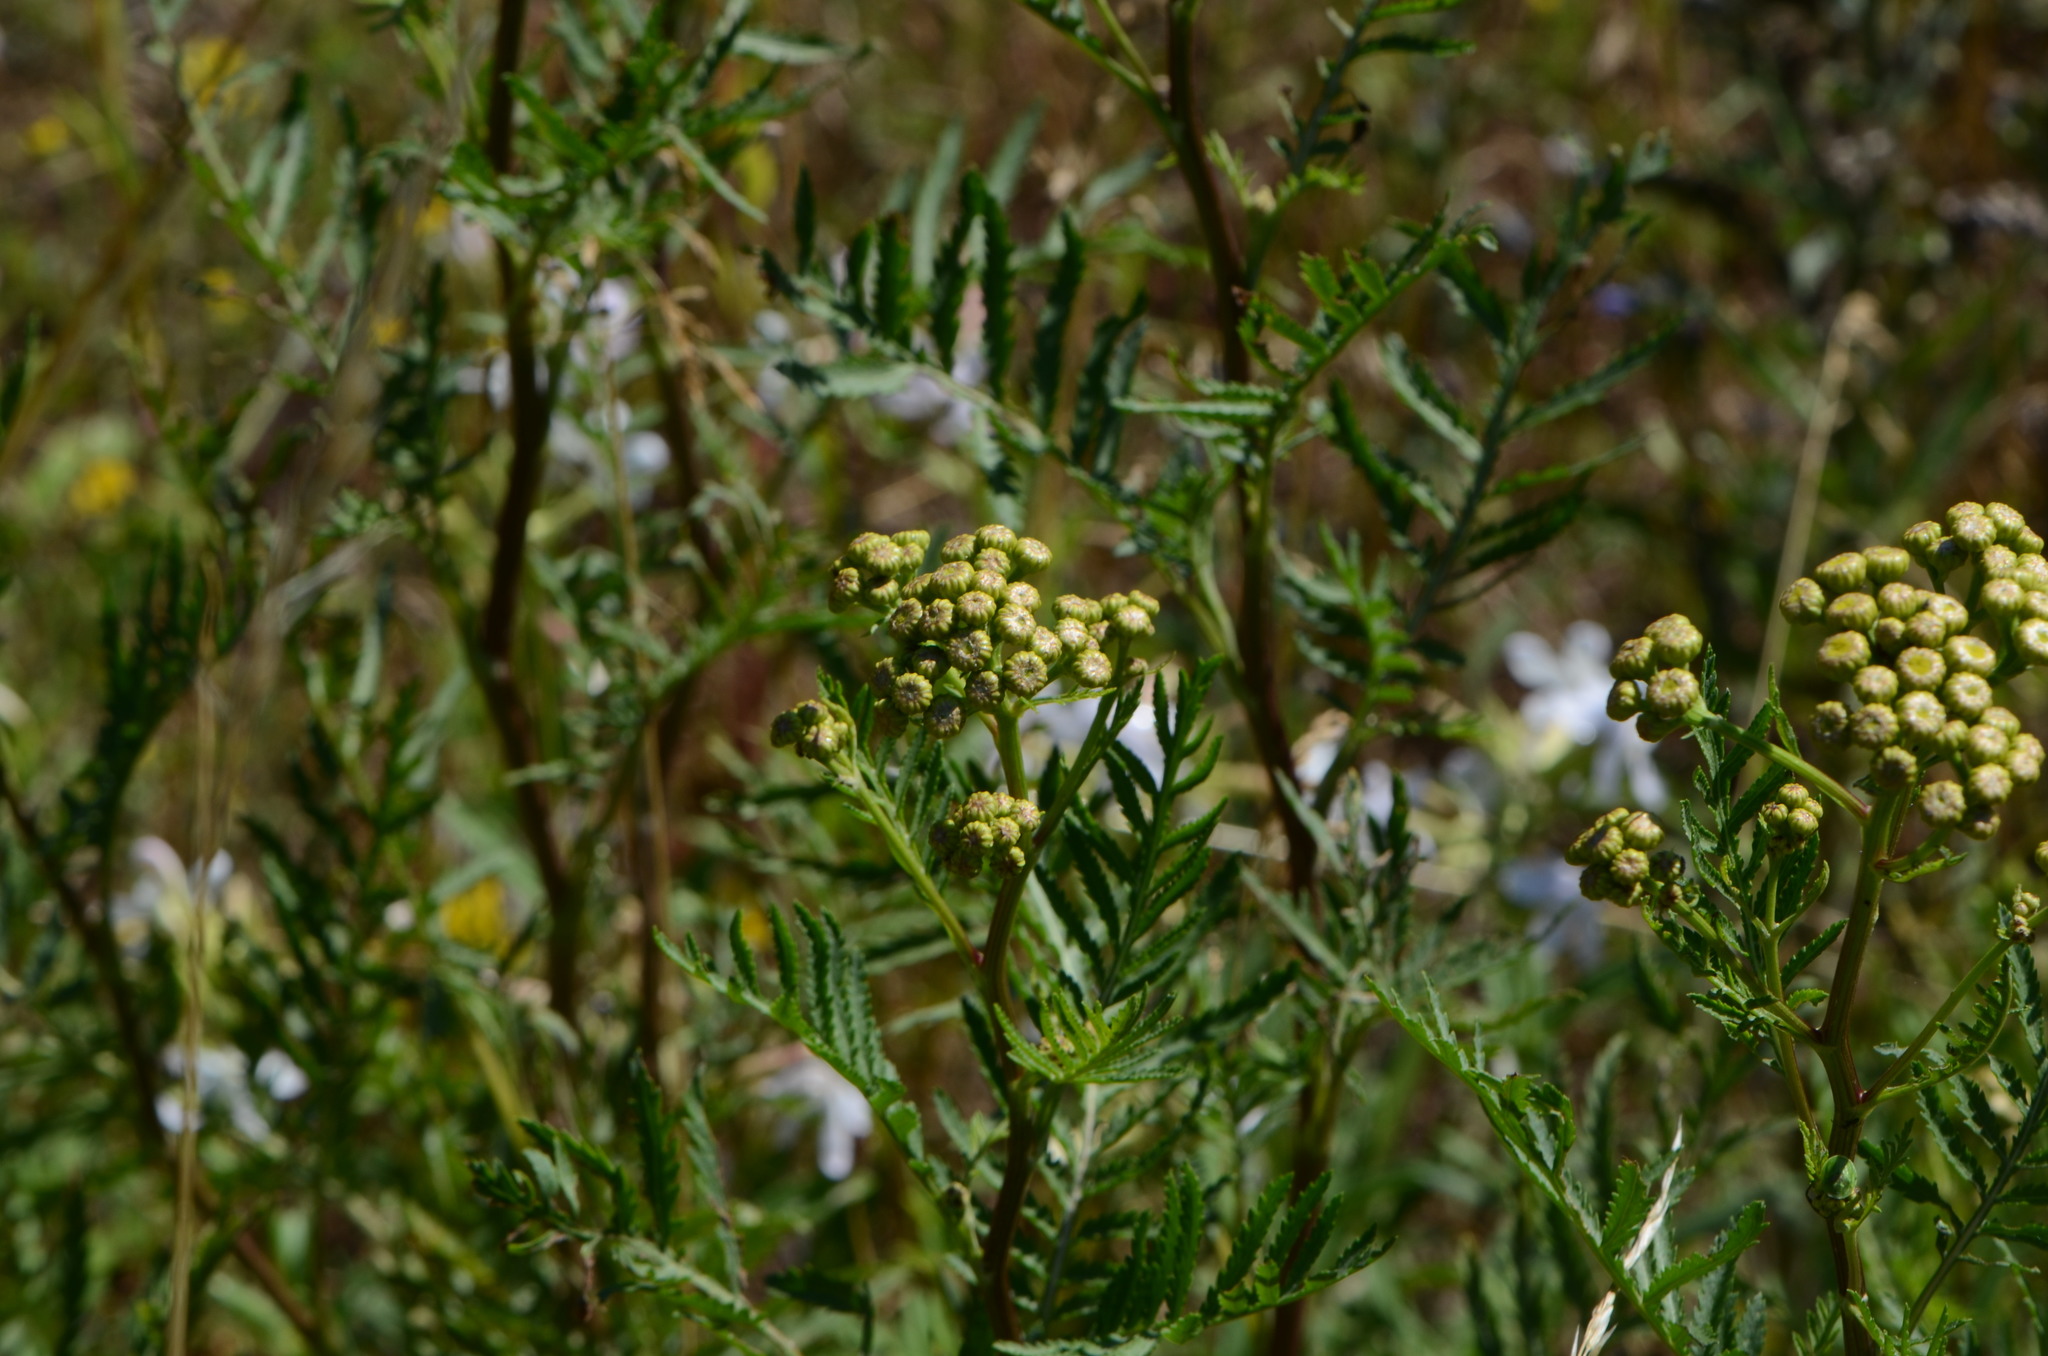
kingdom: Plantae
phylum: Tracheophyta
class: Magnoliopsida
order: Asterales
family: Asteraceae
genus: Tanacetum
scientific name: Tanacetum vulgare
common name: Common tansy
